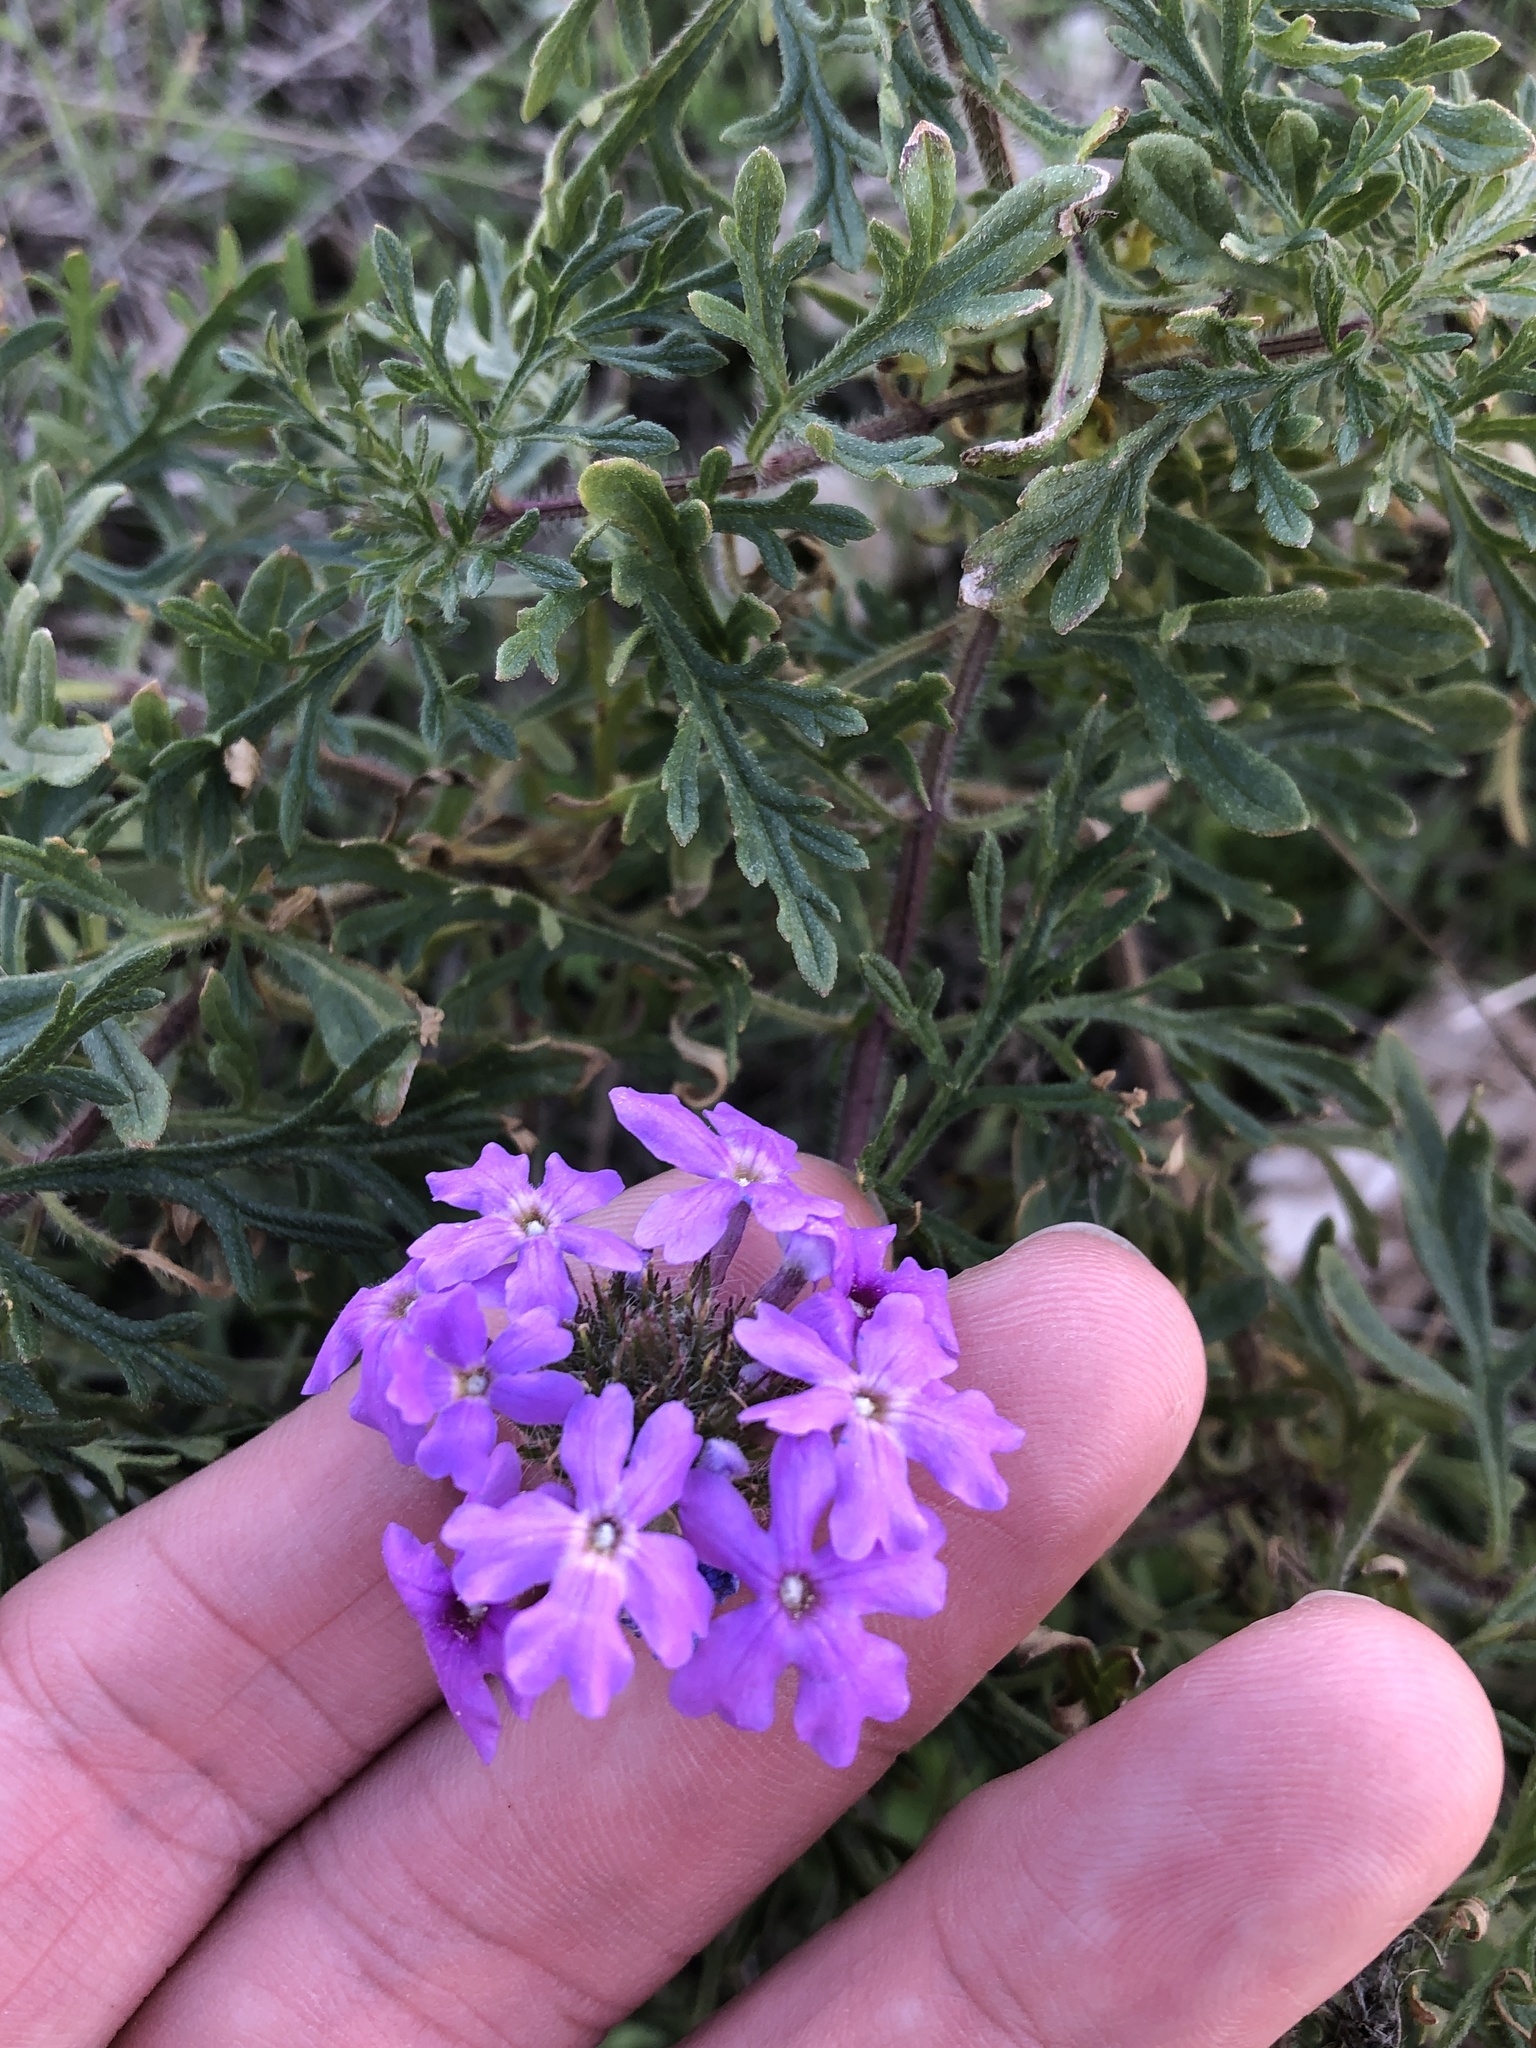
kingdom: Plantae
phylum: Tracheophyta
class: Magnoliopsida
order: Lamiales
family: Verbenaceae
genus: Verbena
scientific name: Verbena bipinnatifida
